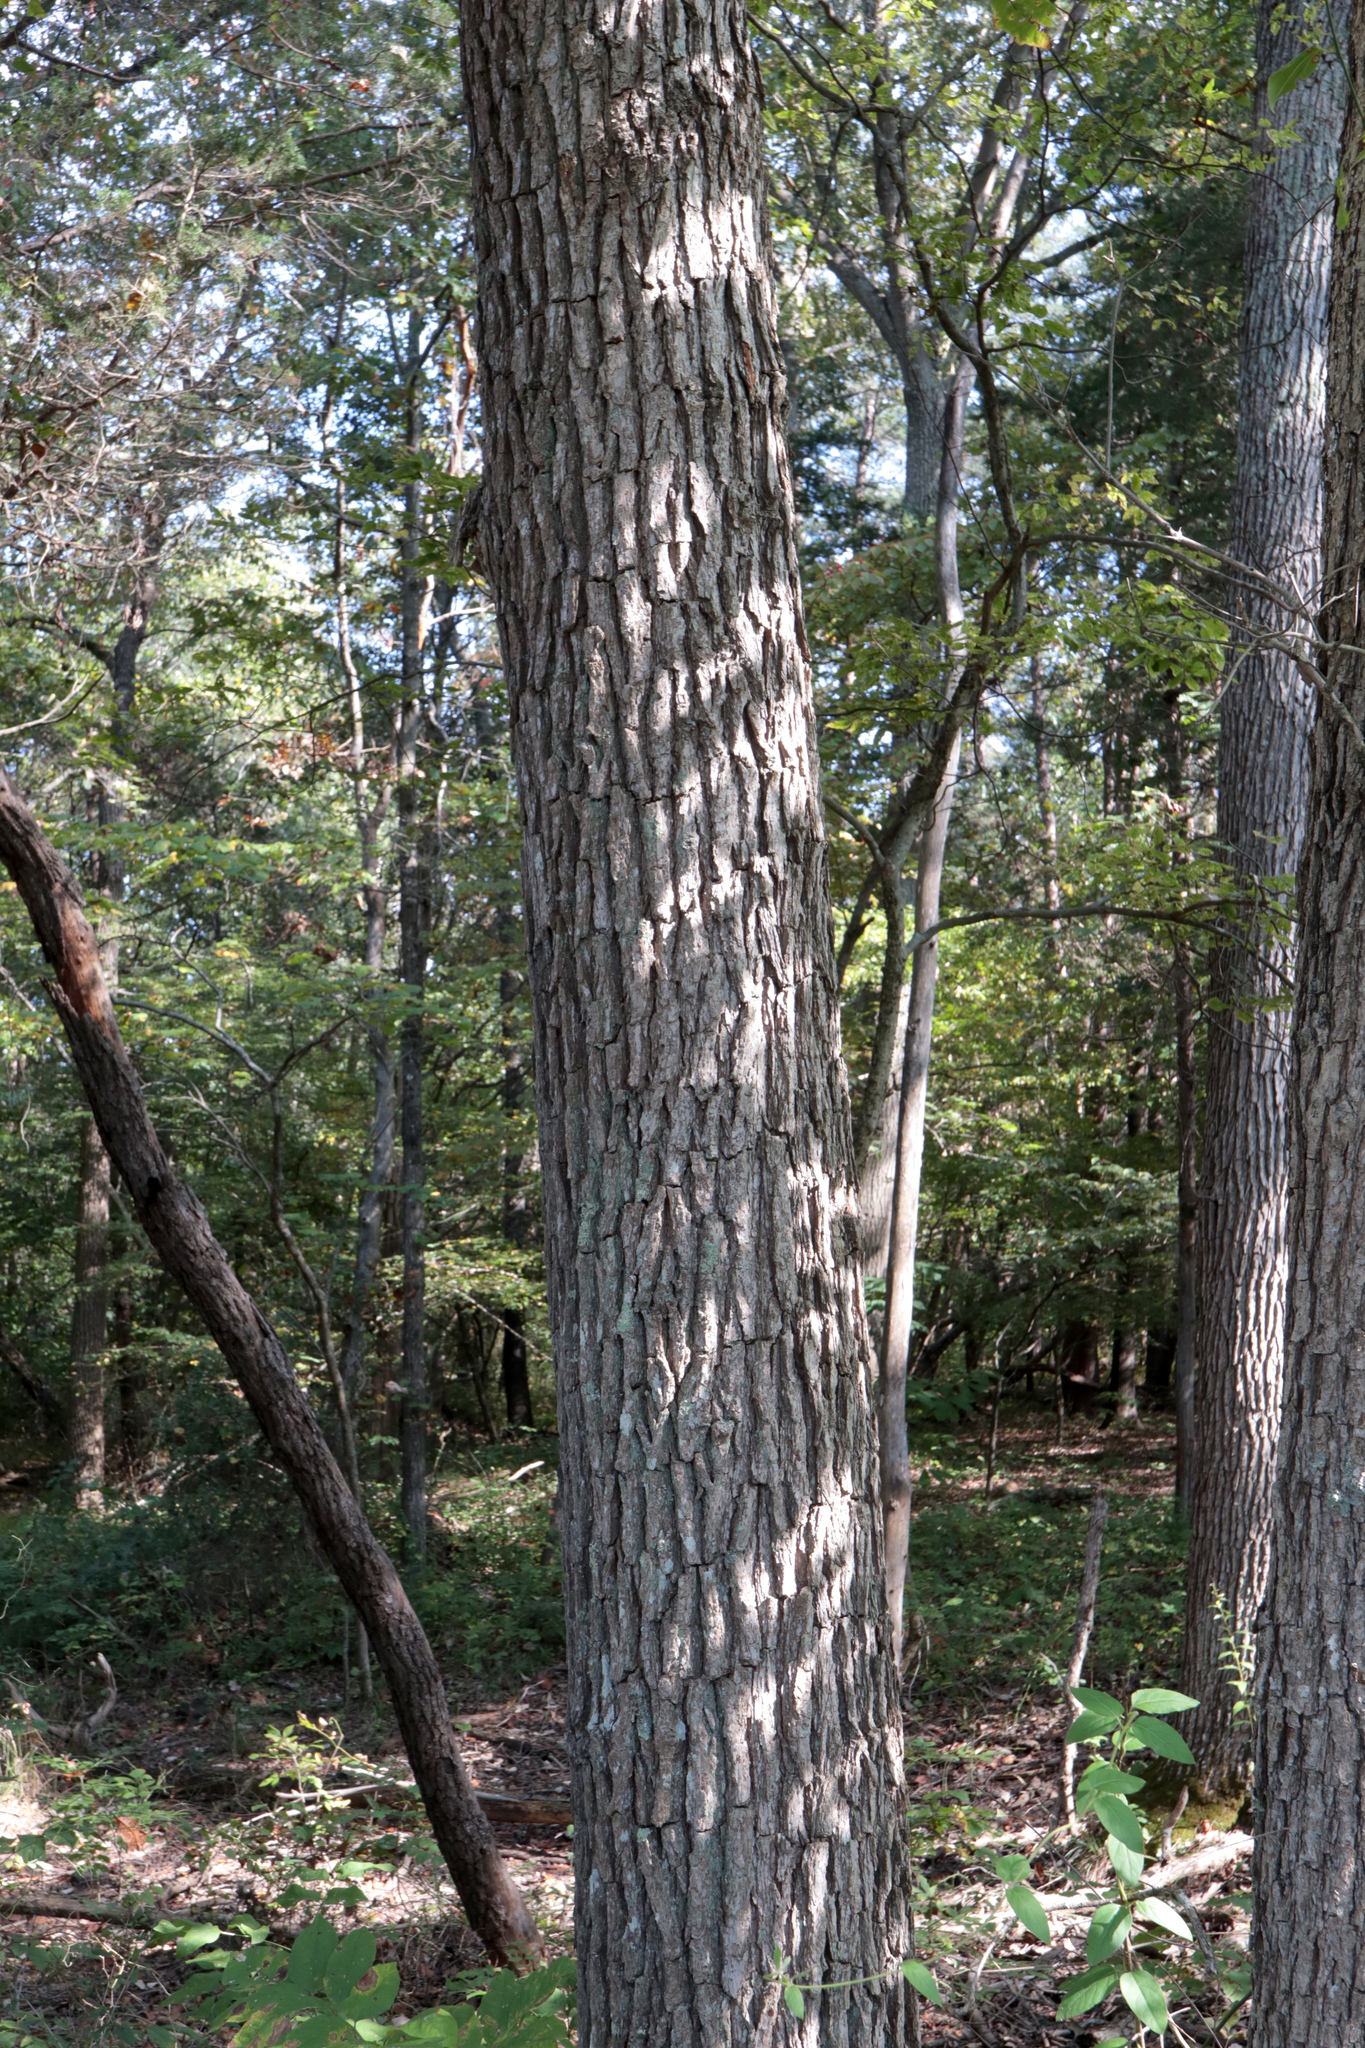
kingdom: Plantae
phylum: Tracheophyta
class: Magnoliopsida
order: Fagales
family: Fagaceae
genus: Quercus
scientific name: Quercus bicolor
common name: Swamp white oak
